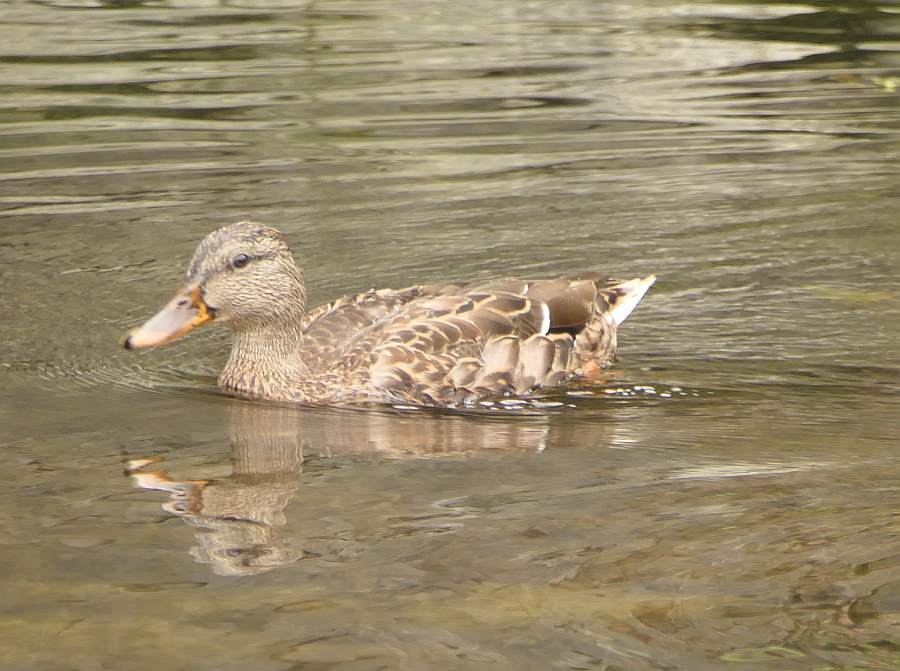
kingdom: Animalia
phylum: Chordata
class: Aves
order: Anseriformes
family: Anatidae
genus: Anas
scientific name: Anas platyrhynchos
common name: Mallard
